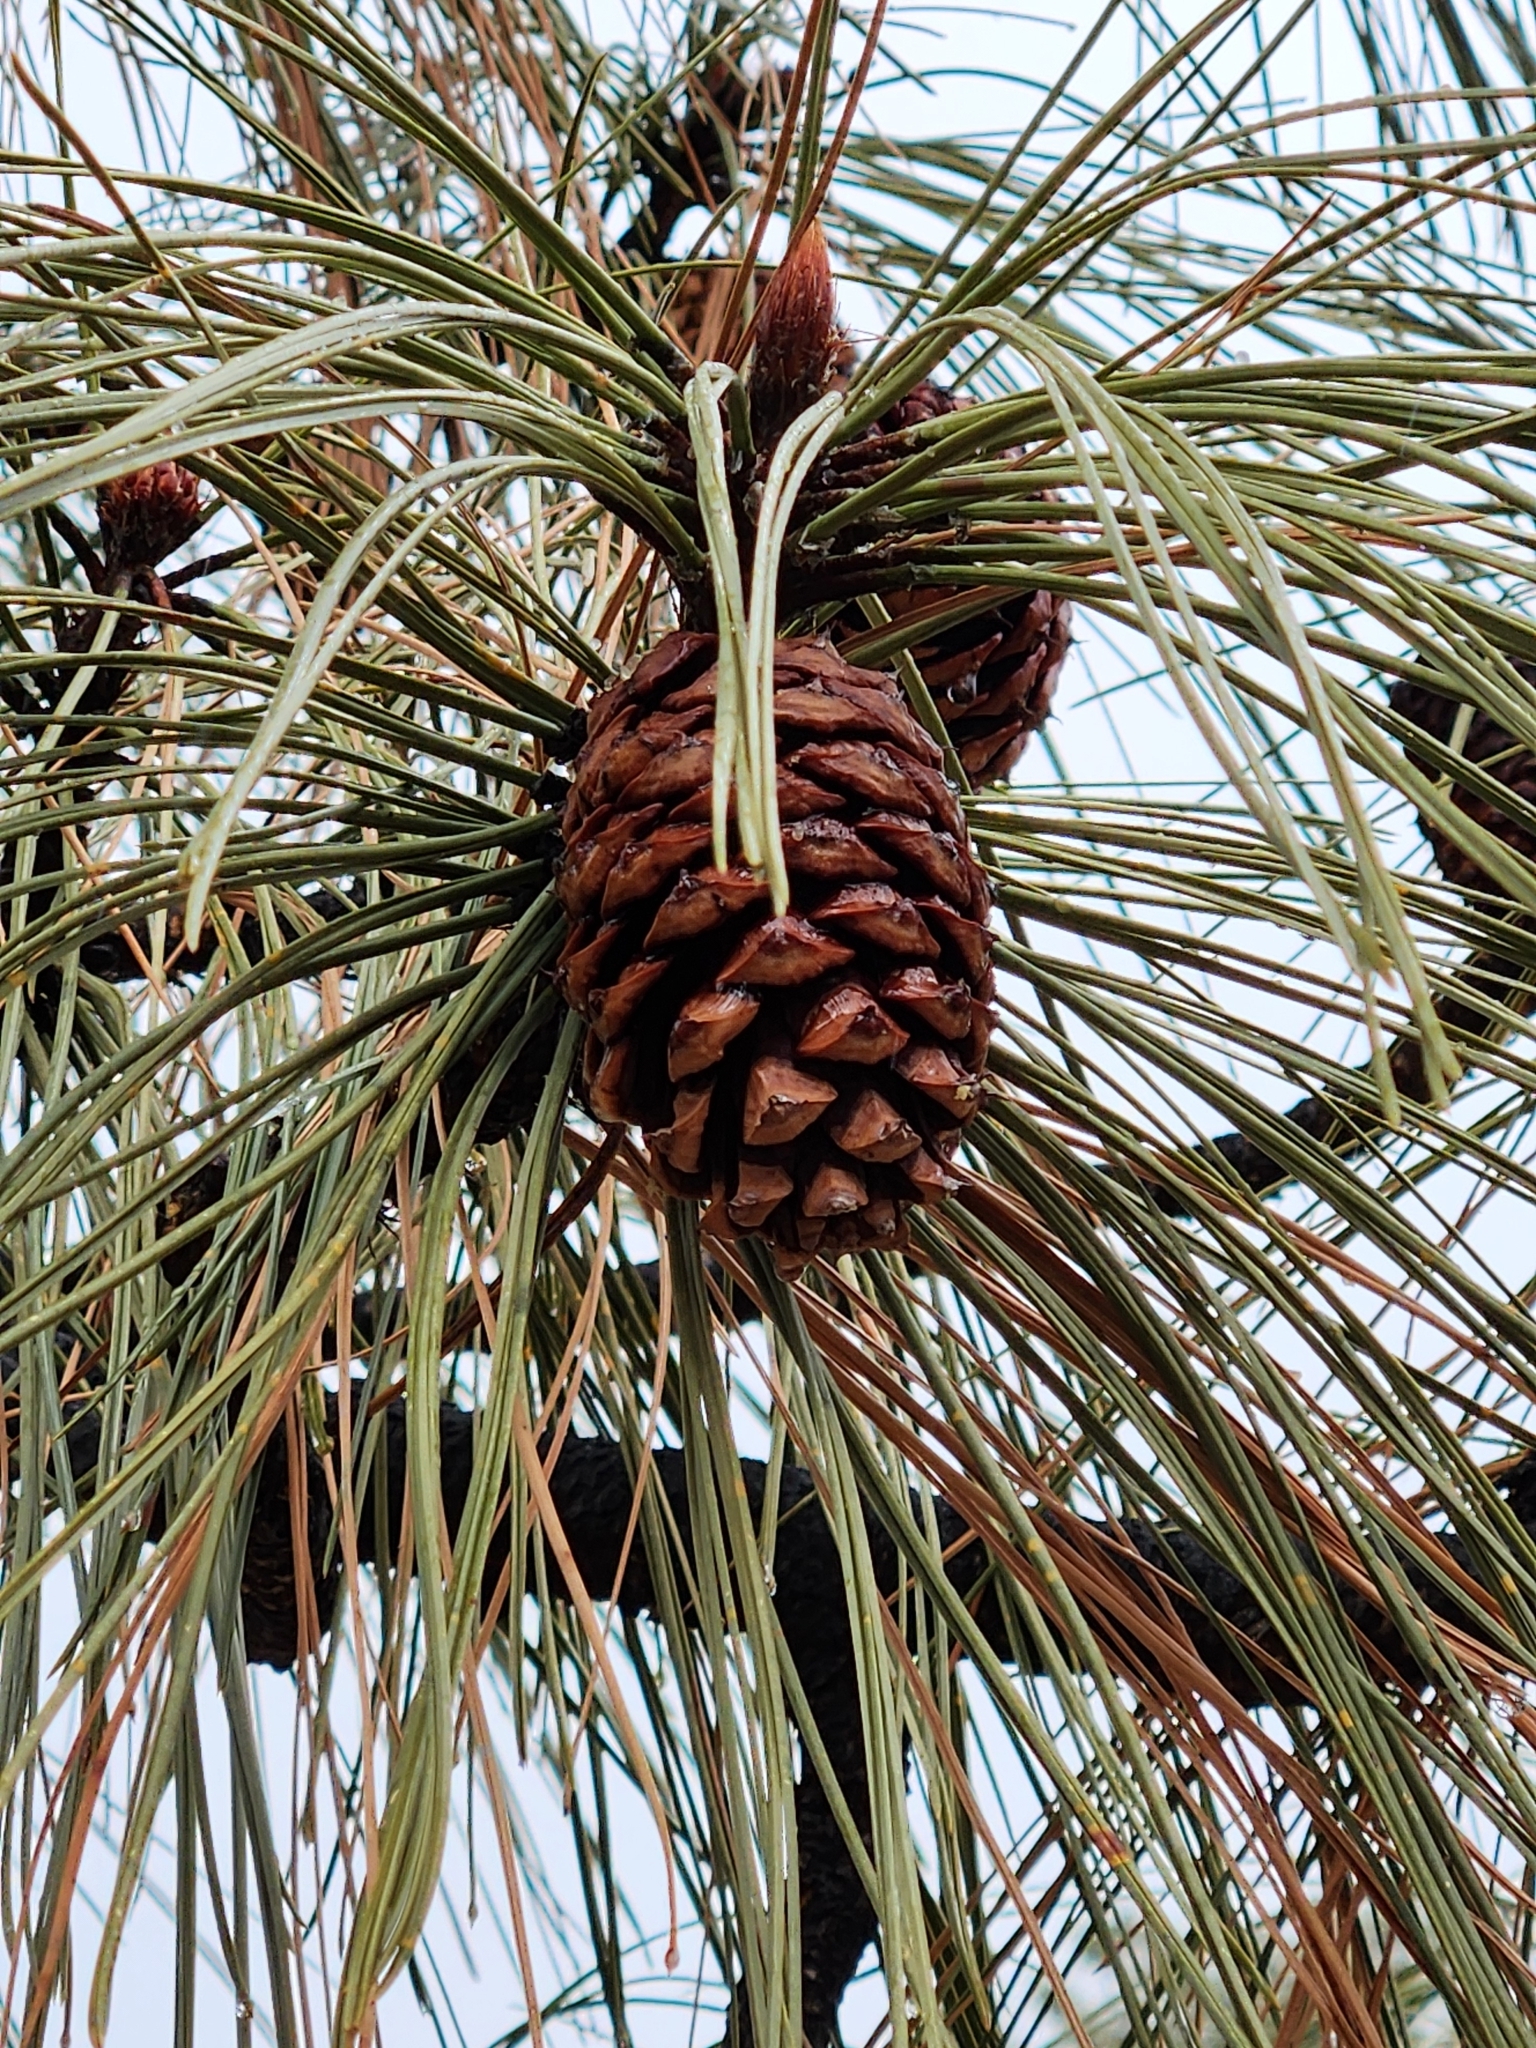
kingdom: Plantae
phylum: Tracheophyta
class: Pinopsida
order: Pinales
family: Pinaceae
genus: Pinus
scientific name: Pinus ponderosa
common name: Western yellow-pine
